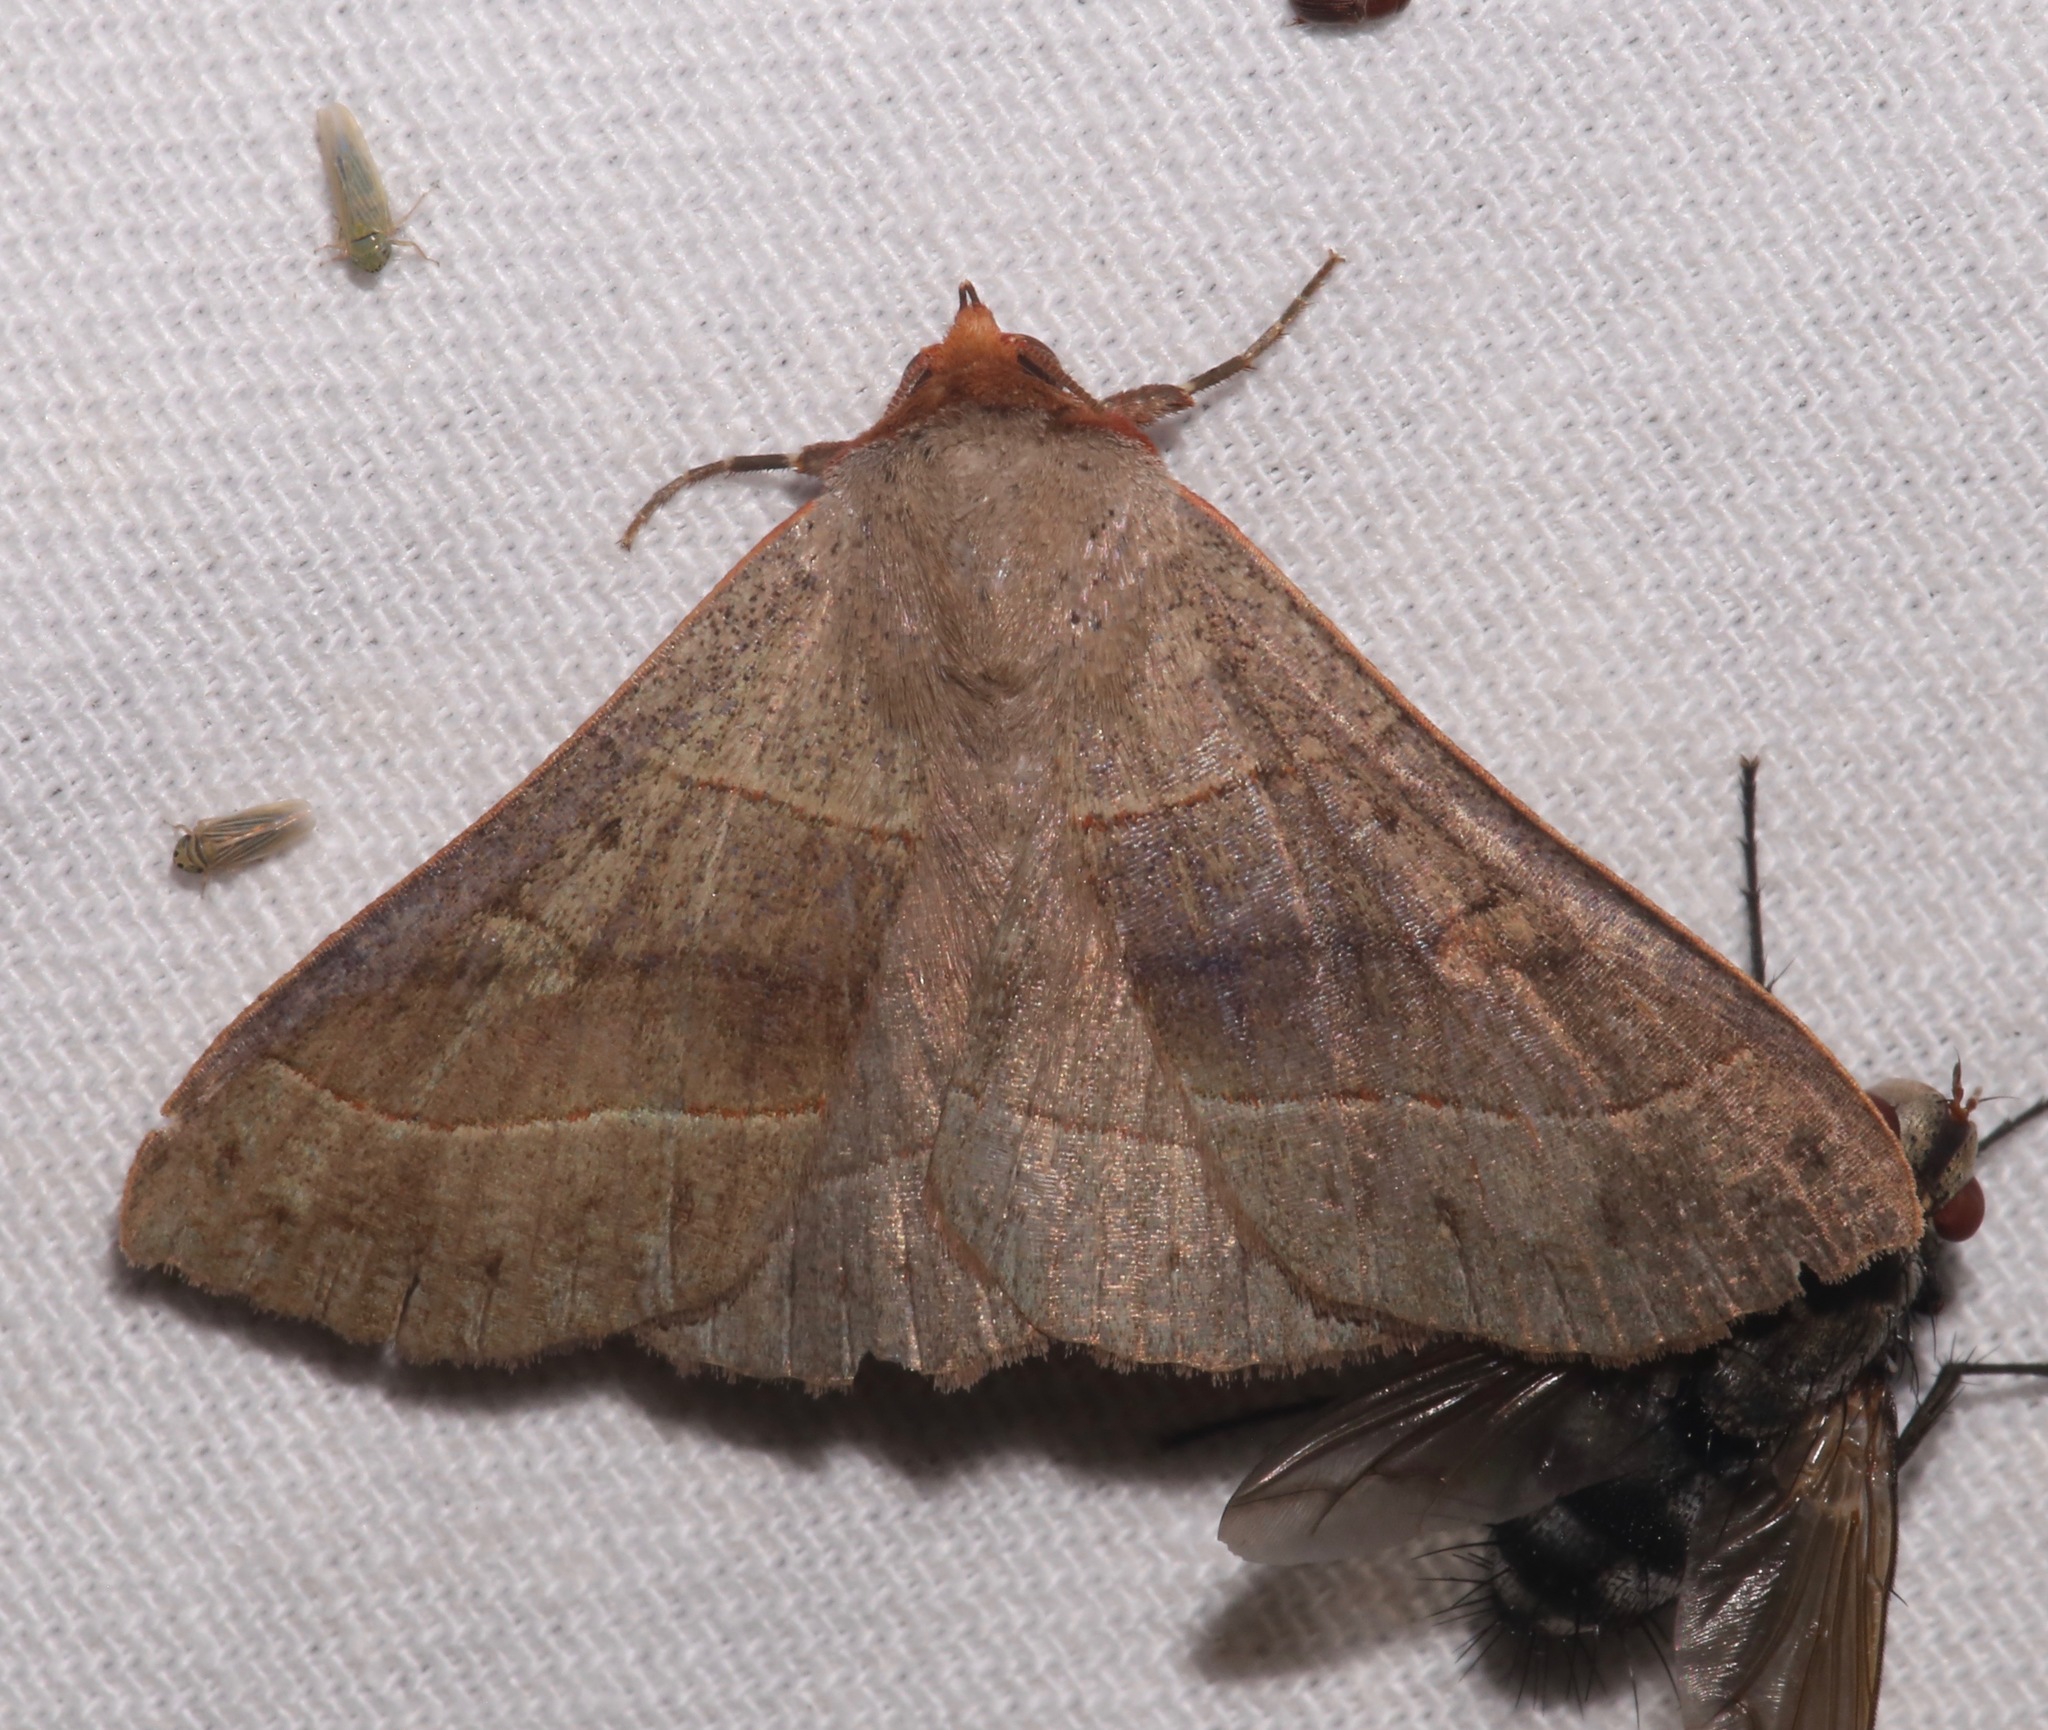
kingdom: Animalia
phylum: Arthropoda
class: Insecta
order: Lepidoptera
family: Erebidae
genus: Panopoda
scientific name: Panopoda rufimargo
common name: Red-lined panopoda moth
